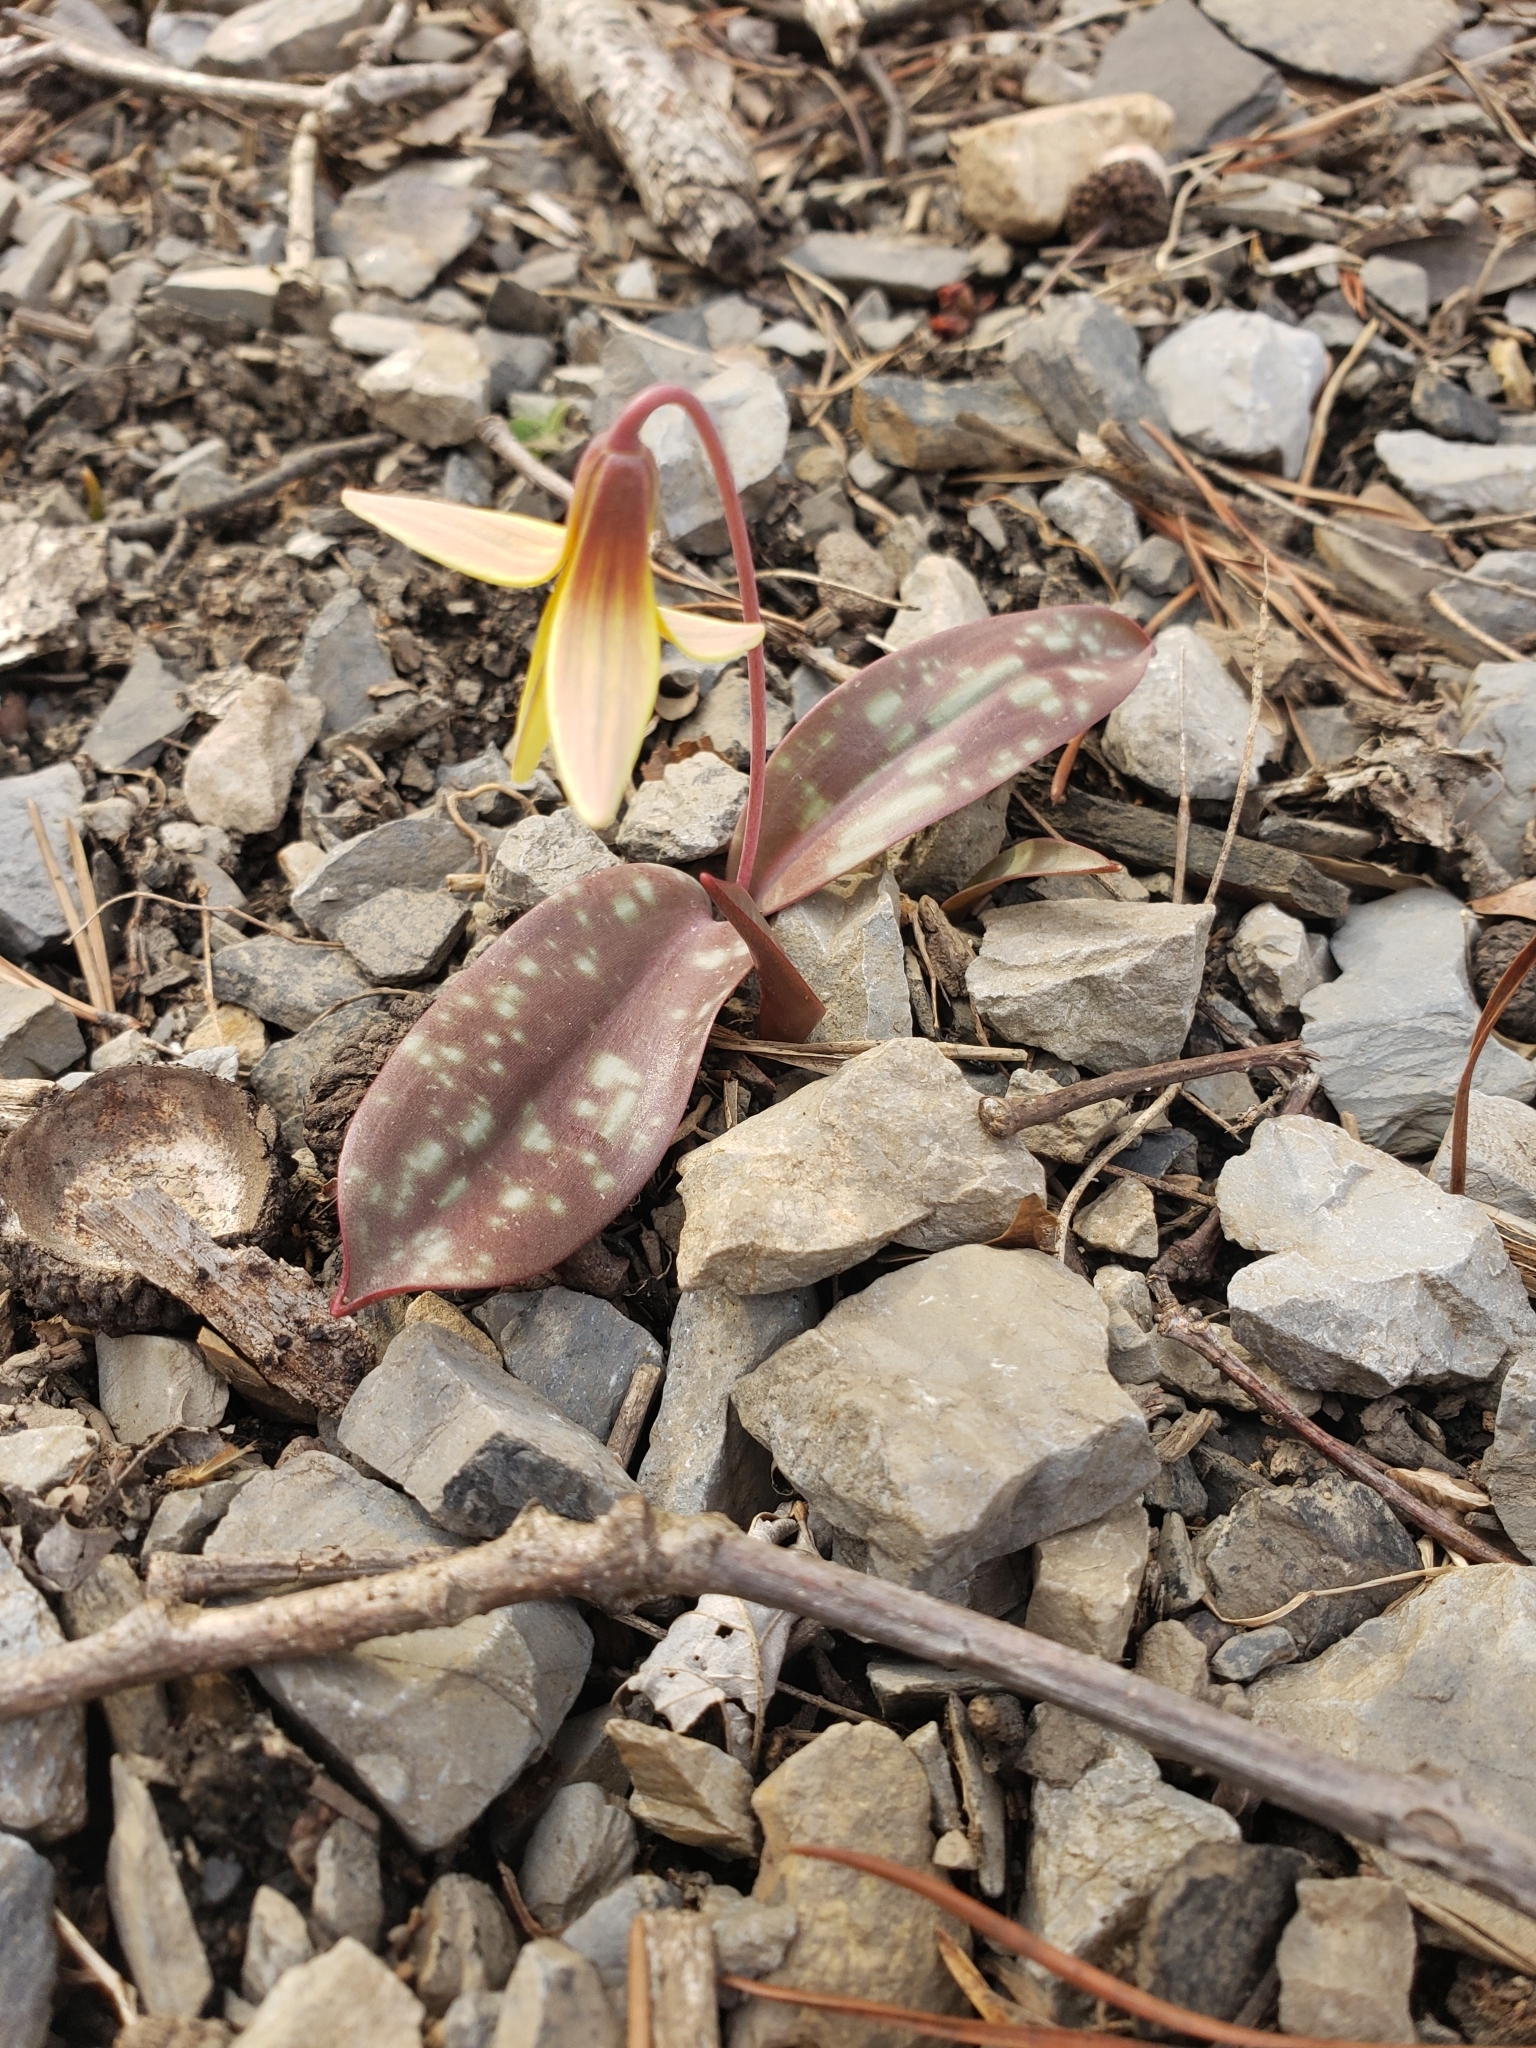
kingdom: Plantae
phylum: Tracheophyta
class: Liliopsida
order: Liliales
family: Liliaceae
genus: Erythronium
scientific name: Erythronium umbilicatum
